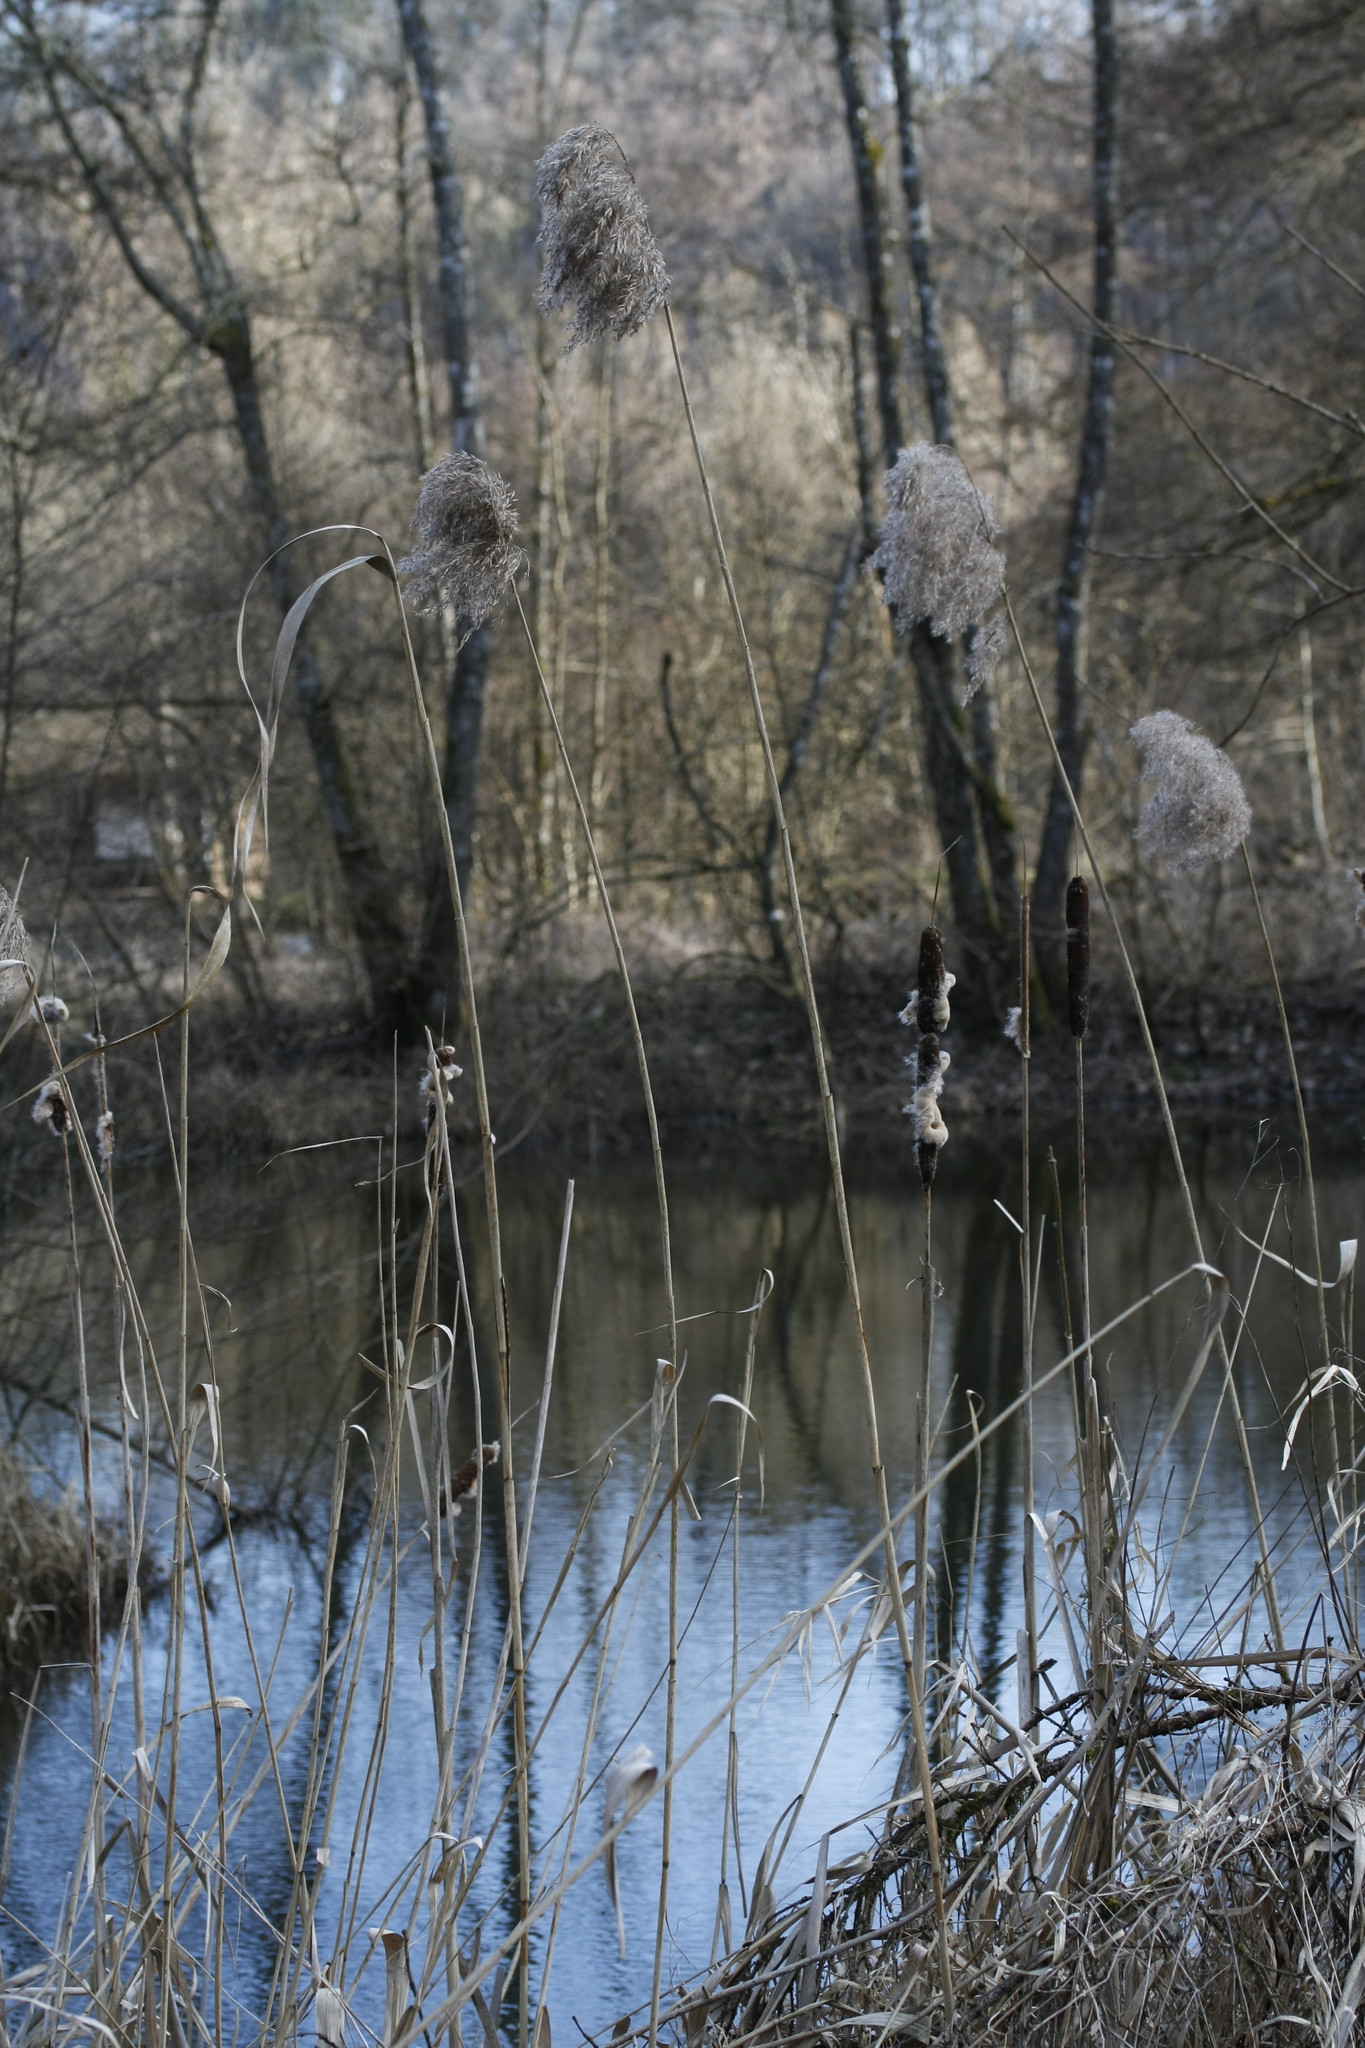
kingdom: Plantae
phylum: Tracheophyta
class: Liliopsida
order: Poales
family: Poaceae
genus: Phragmites
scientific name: Phragmites australis
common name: Common reed
